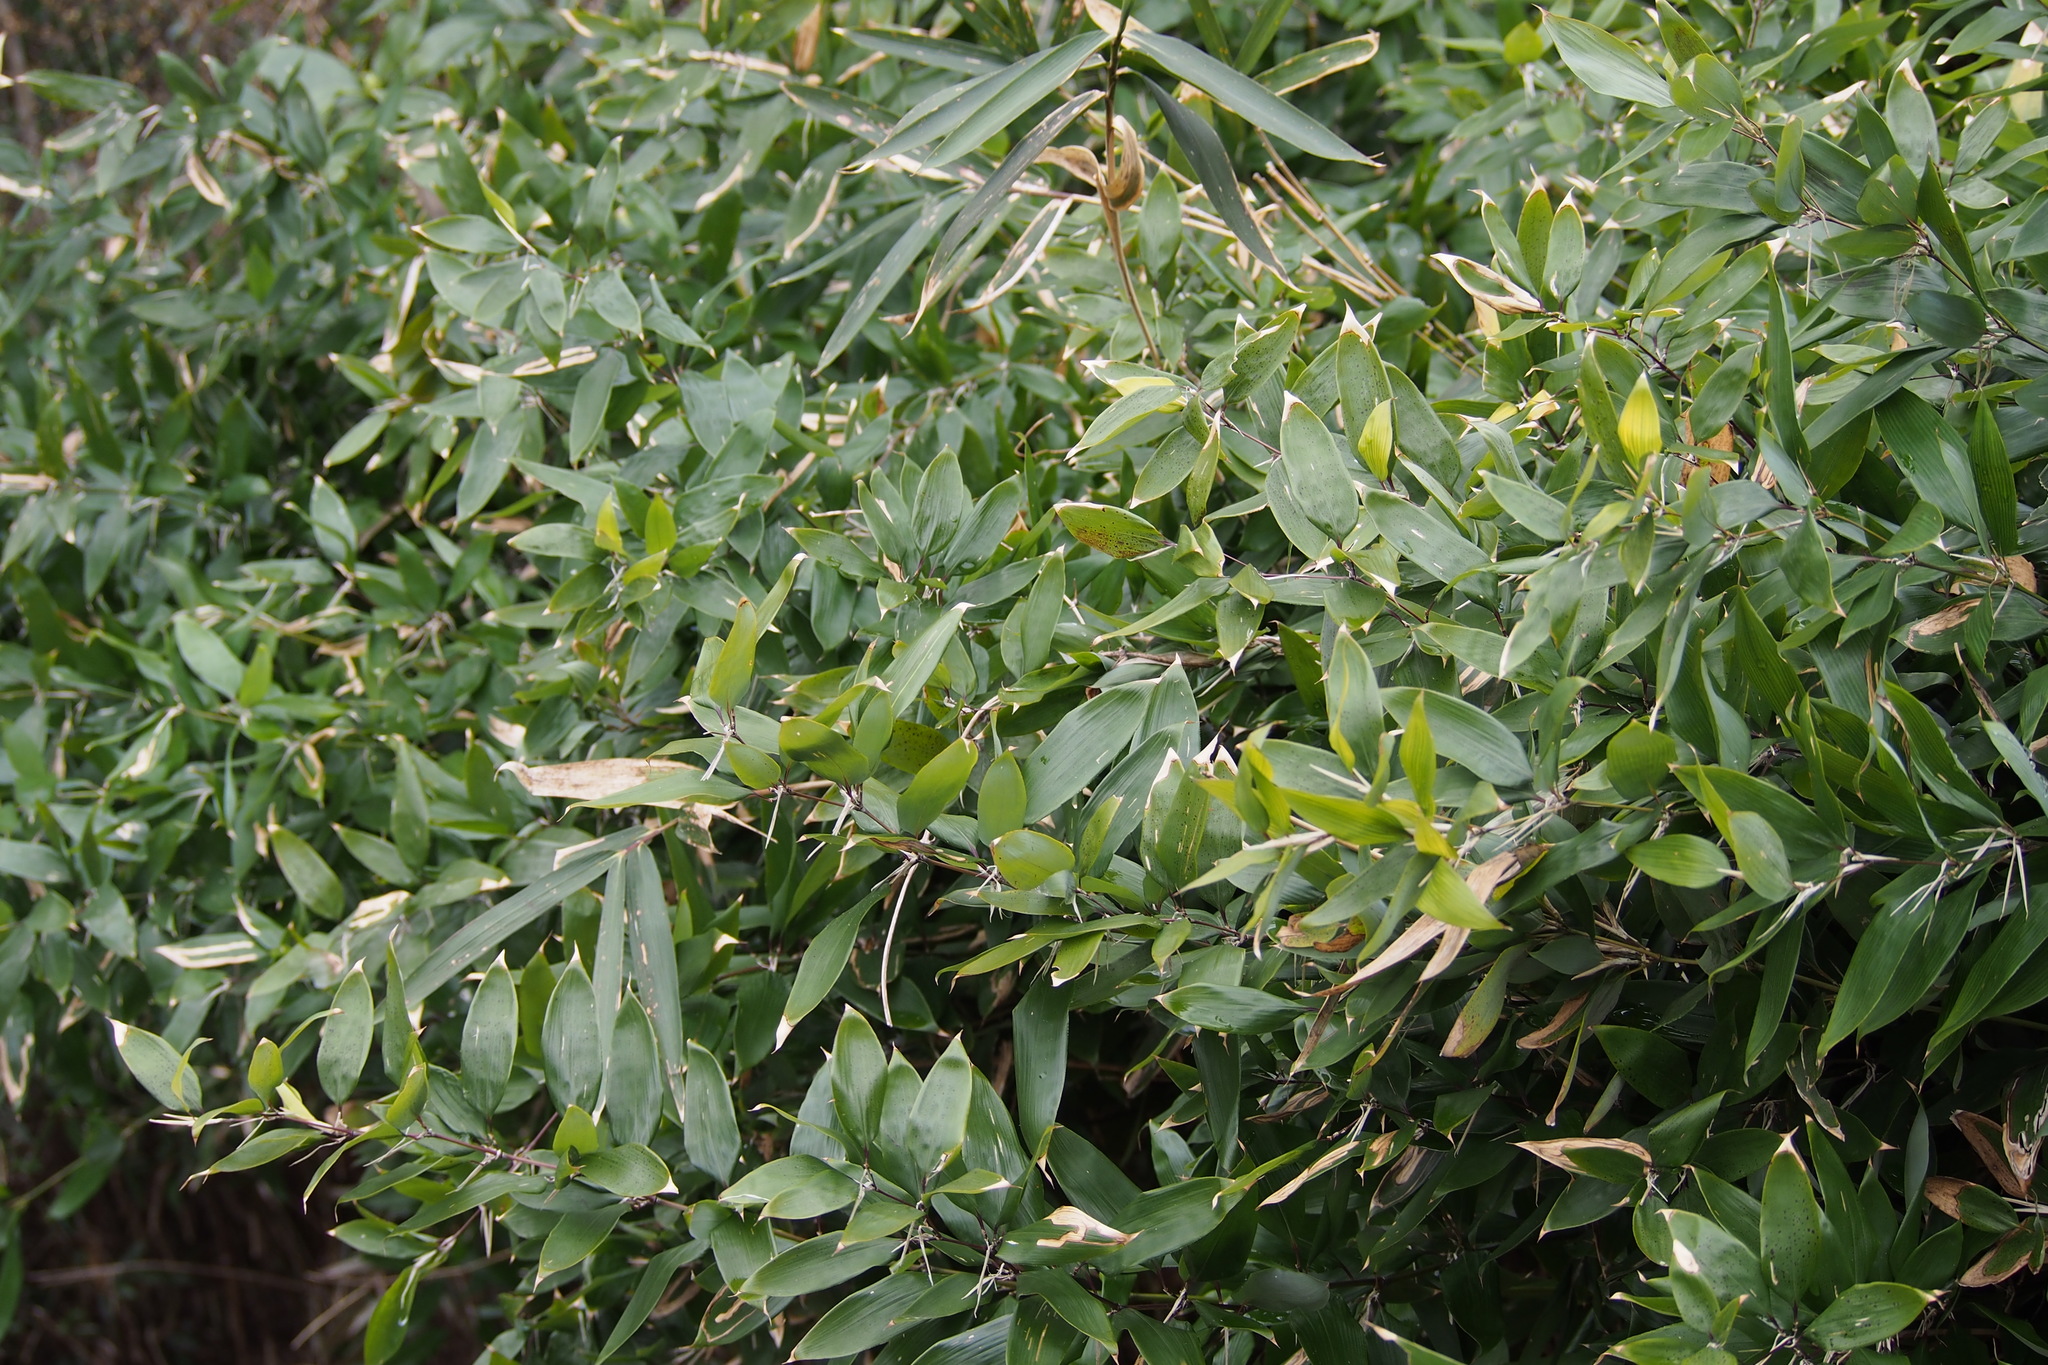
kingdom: Plantae
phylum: Tracheophyta
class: Liliopsida
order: Poales
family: Poaceae
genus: Shibataea
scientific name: Shibataea kumasaca
